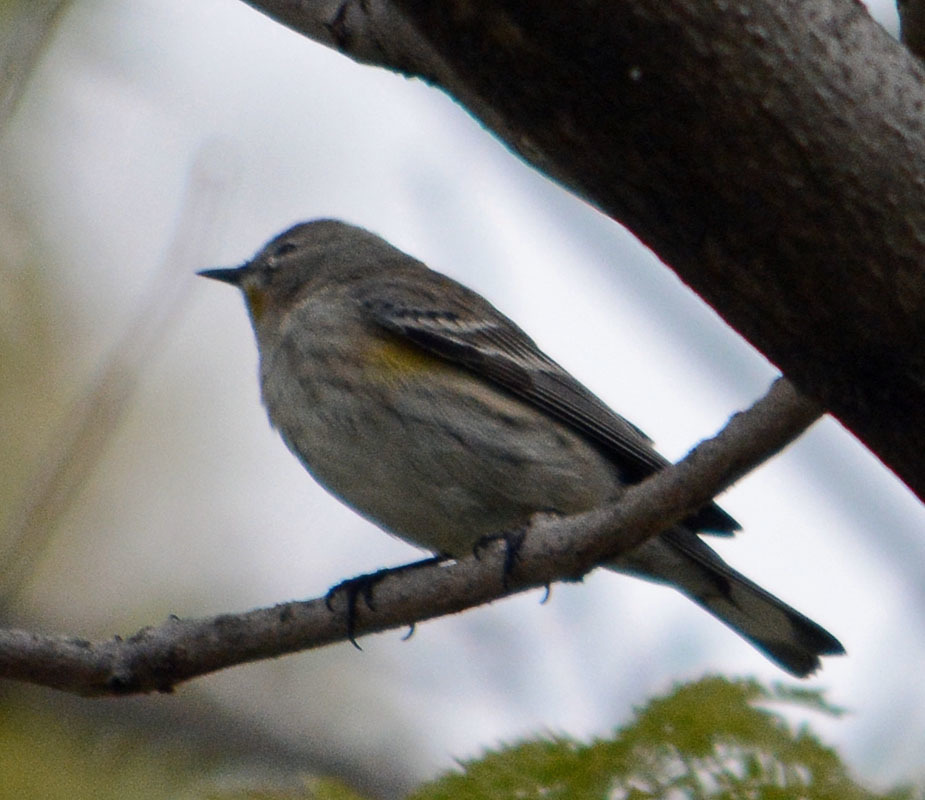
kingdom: Animalia
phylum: Chordata
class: Aves
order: Passeriformes
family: Parulidae
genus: Setophaga
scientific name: Setophaga coronata
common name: Myrtle warbler
